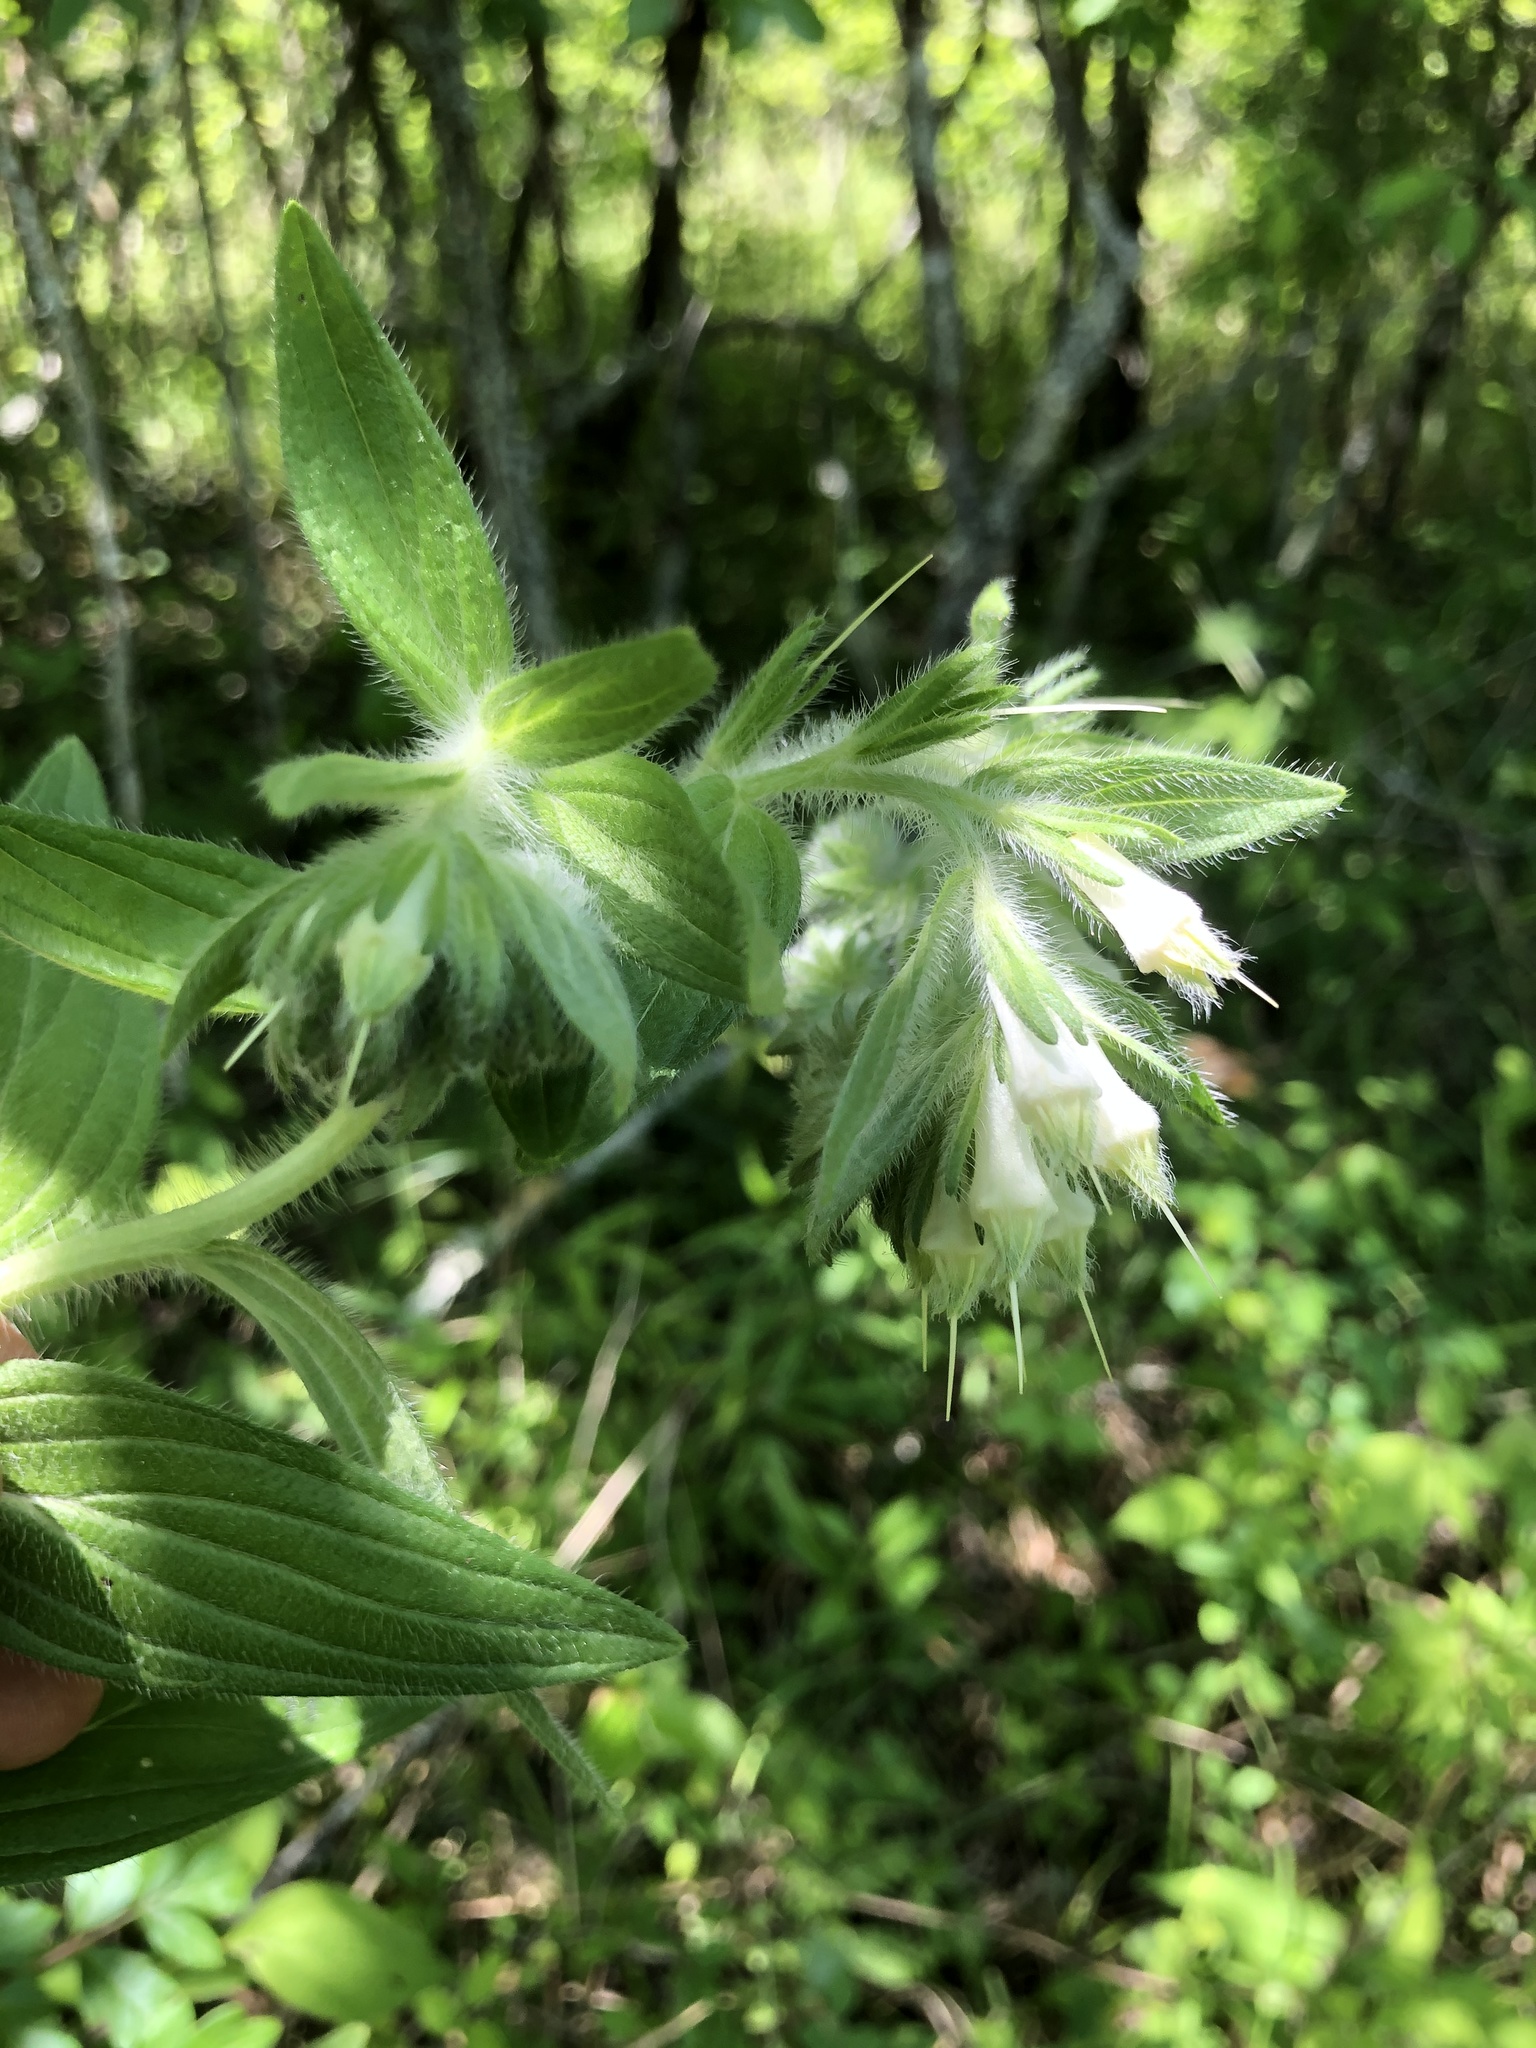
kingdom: Plantae
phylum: Tracheophyta
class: Magnoliopsida
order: Boraginales
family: Boraginaceae
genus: Lithospermum
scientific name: Lithospermum caroliniense
